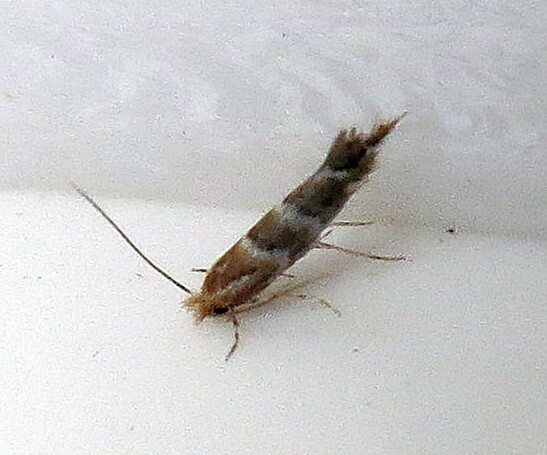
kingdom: Animalia
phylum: Arthropoda
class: Insecta
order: Lepidoptera
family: Gracillariidae
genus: Cameraria
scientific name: Cameraria ohridella
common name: Horse-chestnut leaf-miner
